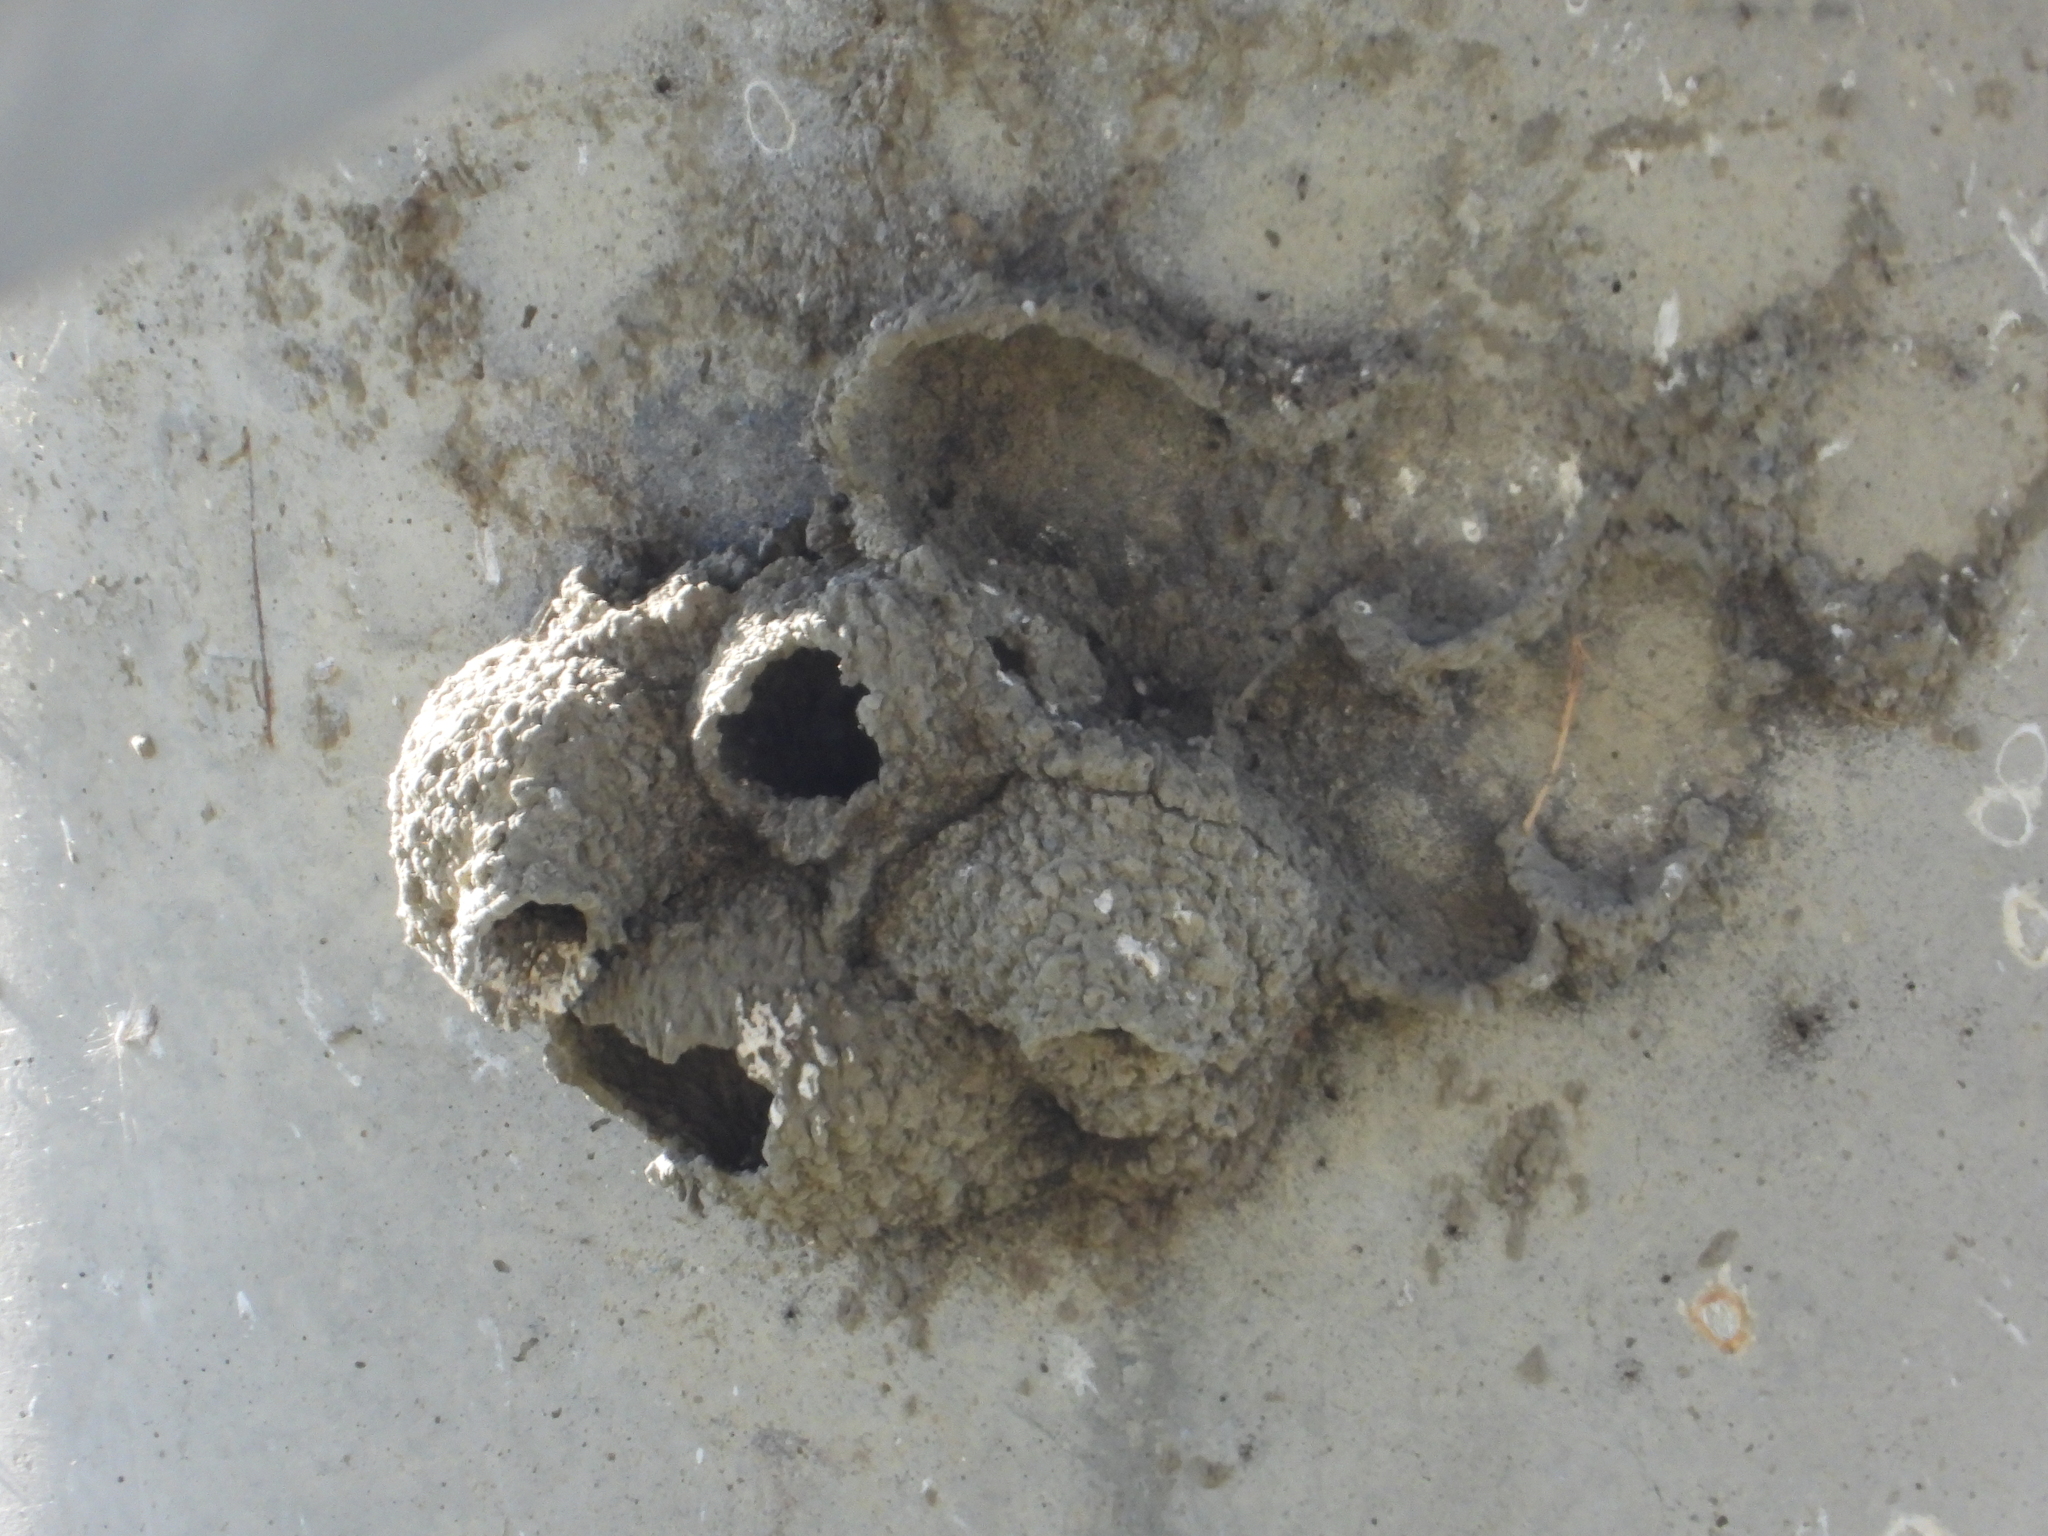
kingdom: Animalia
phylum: Chordata
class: Aves
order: Passeriformes
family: Hirundinidae
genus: Petrochelidon
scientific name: Petrochelidon pyrrhonota
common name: American cliff swallow
